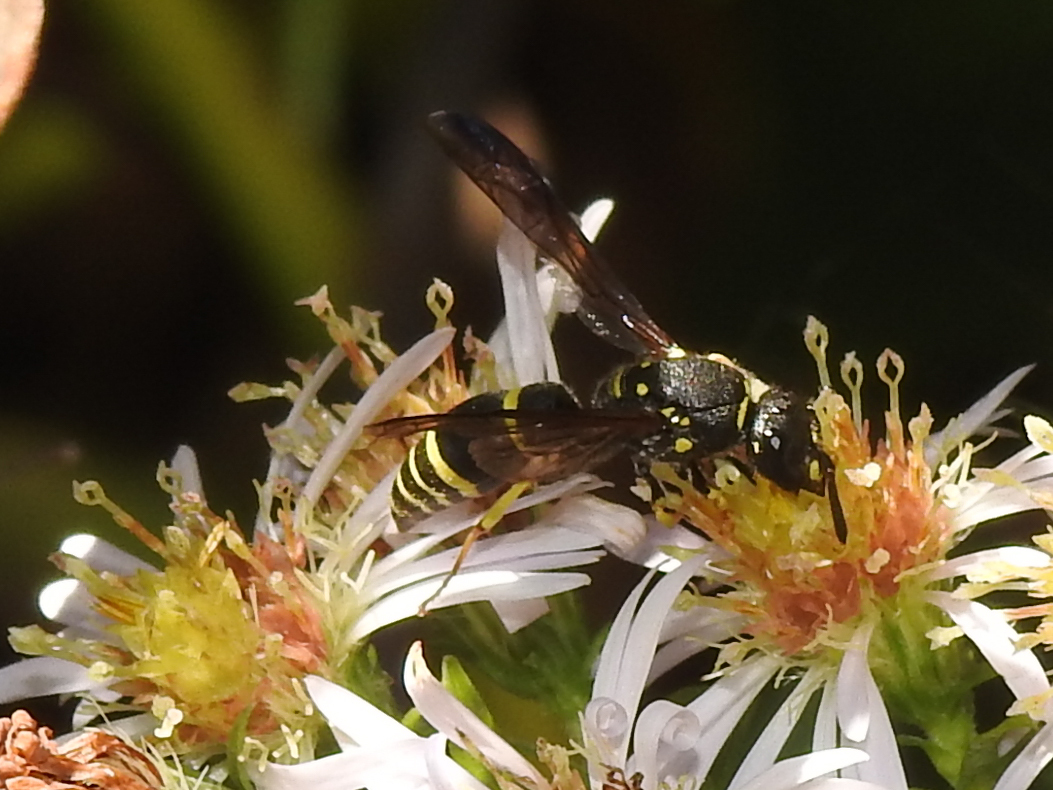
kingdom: Animalia
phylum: Arthropoda
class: Insecta
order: Hymenoptera
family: Vespidae
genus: Ancistrocerus
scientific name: Ancistrocerus adiabatus
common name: Bramble mason wasp
